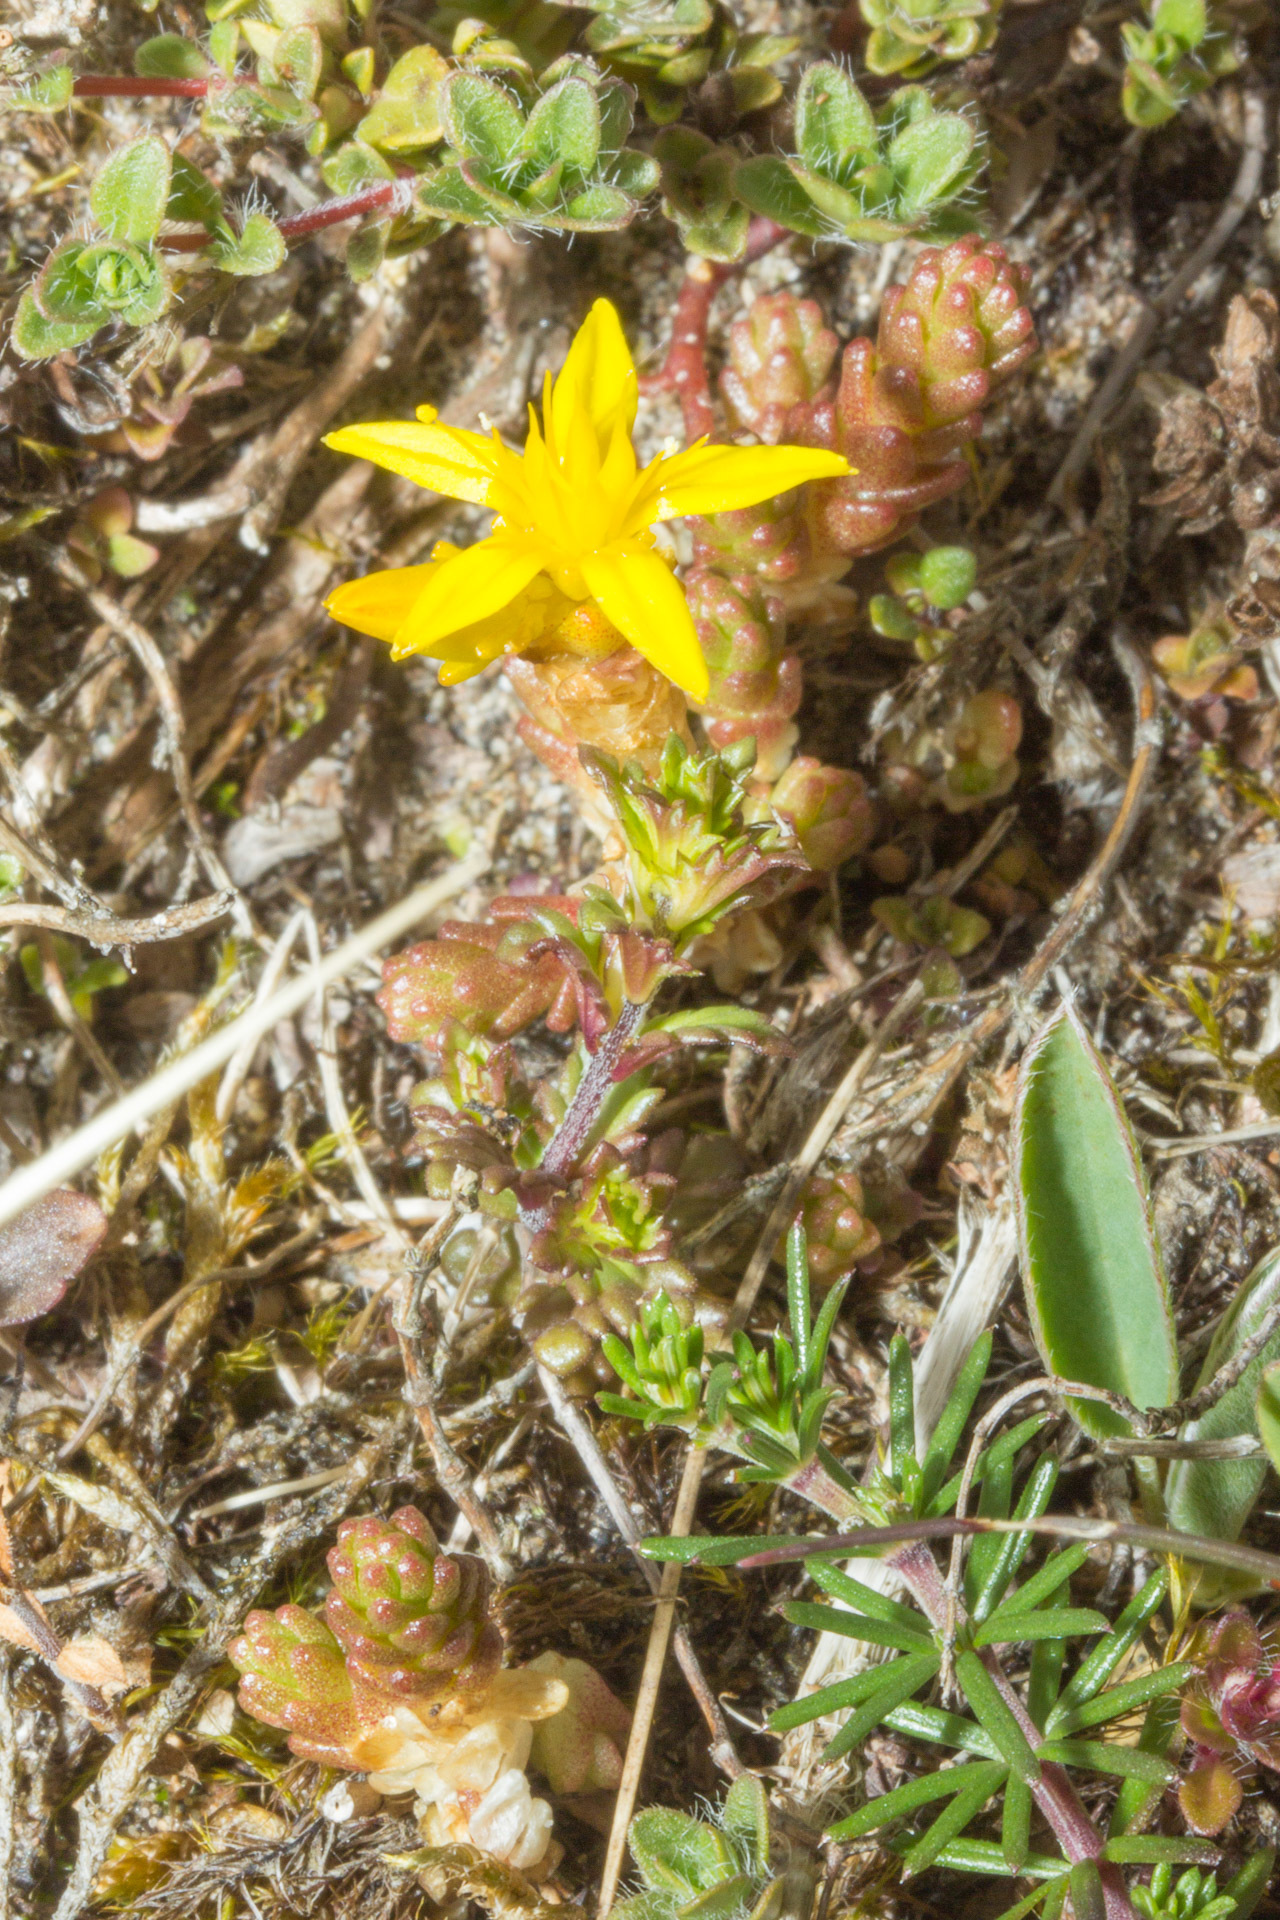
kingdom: Plantae
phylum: Tracheophyta
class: Magnoliopsida
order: Saxifragales
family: Crassulaceae
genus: Sedum
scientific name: Sedum acre
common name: Biting stonecrop
